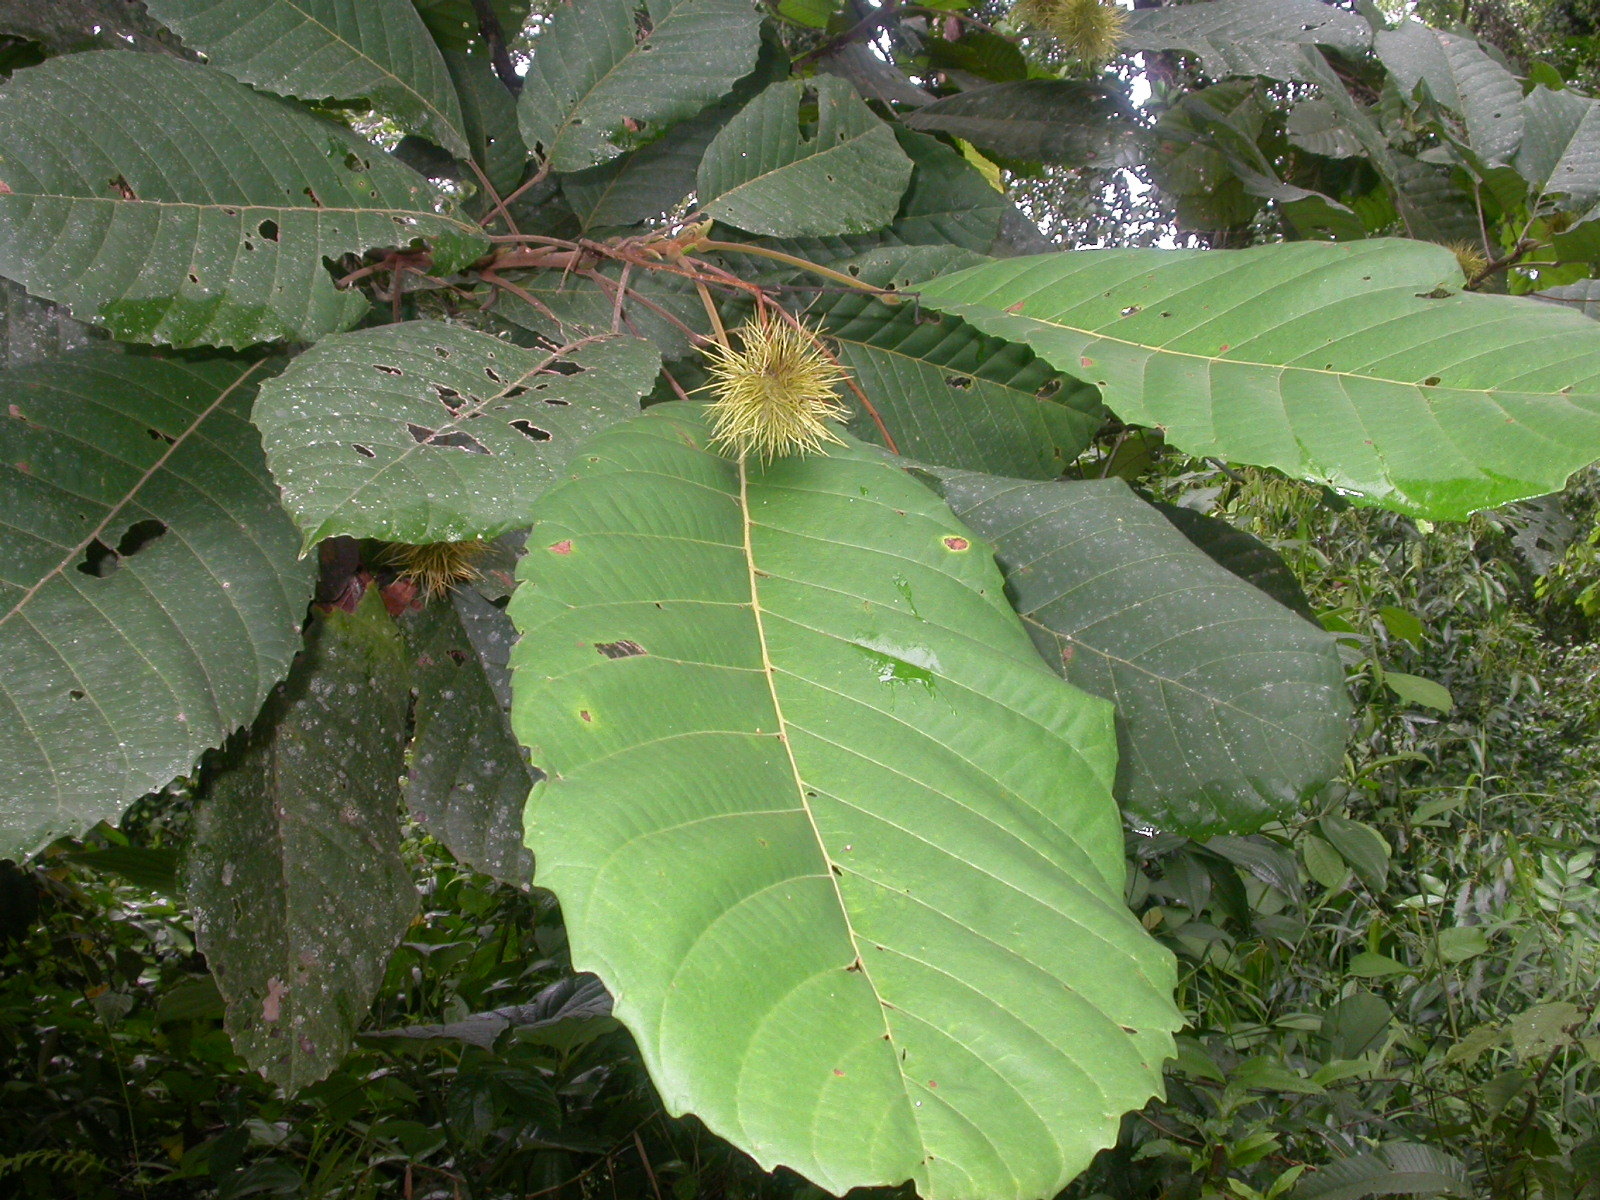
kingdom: Plantae
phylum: Tracheophyta
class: Magnoliopsida
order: Oxalidales
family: Elaeocarpaceae
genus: Sloanea
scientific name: Sloanea zuliaensis
